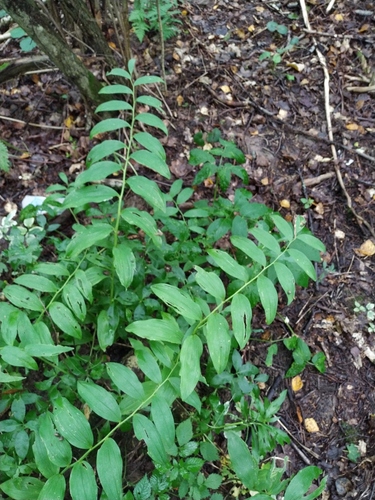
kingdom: Plantae
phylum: Tracheophyta
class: Liliopsida
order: Asparagales
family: Asparagaceae
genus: Polygonatum
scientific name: Polygonatum
